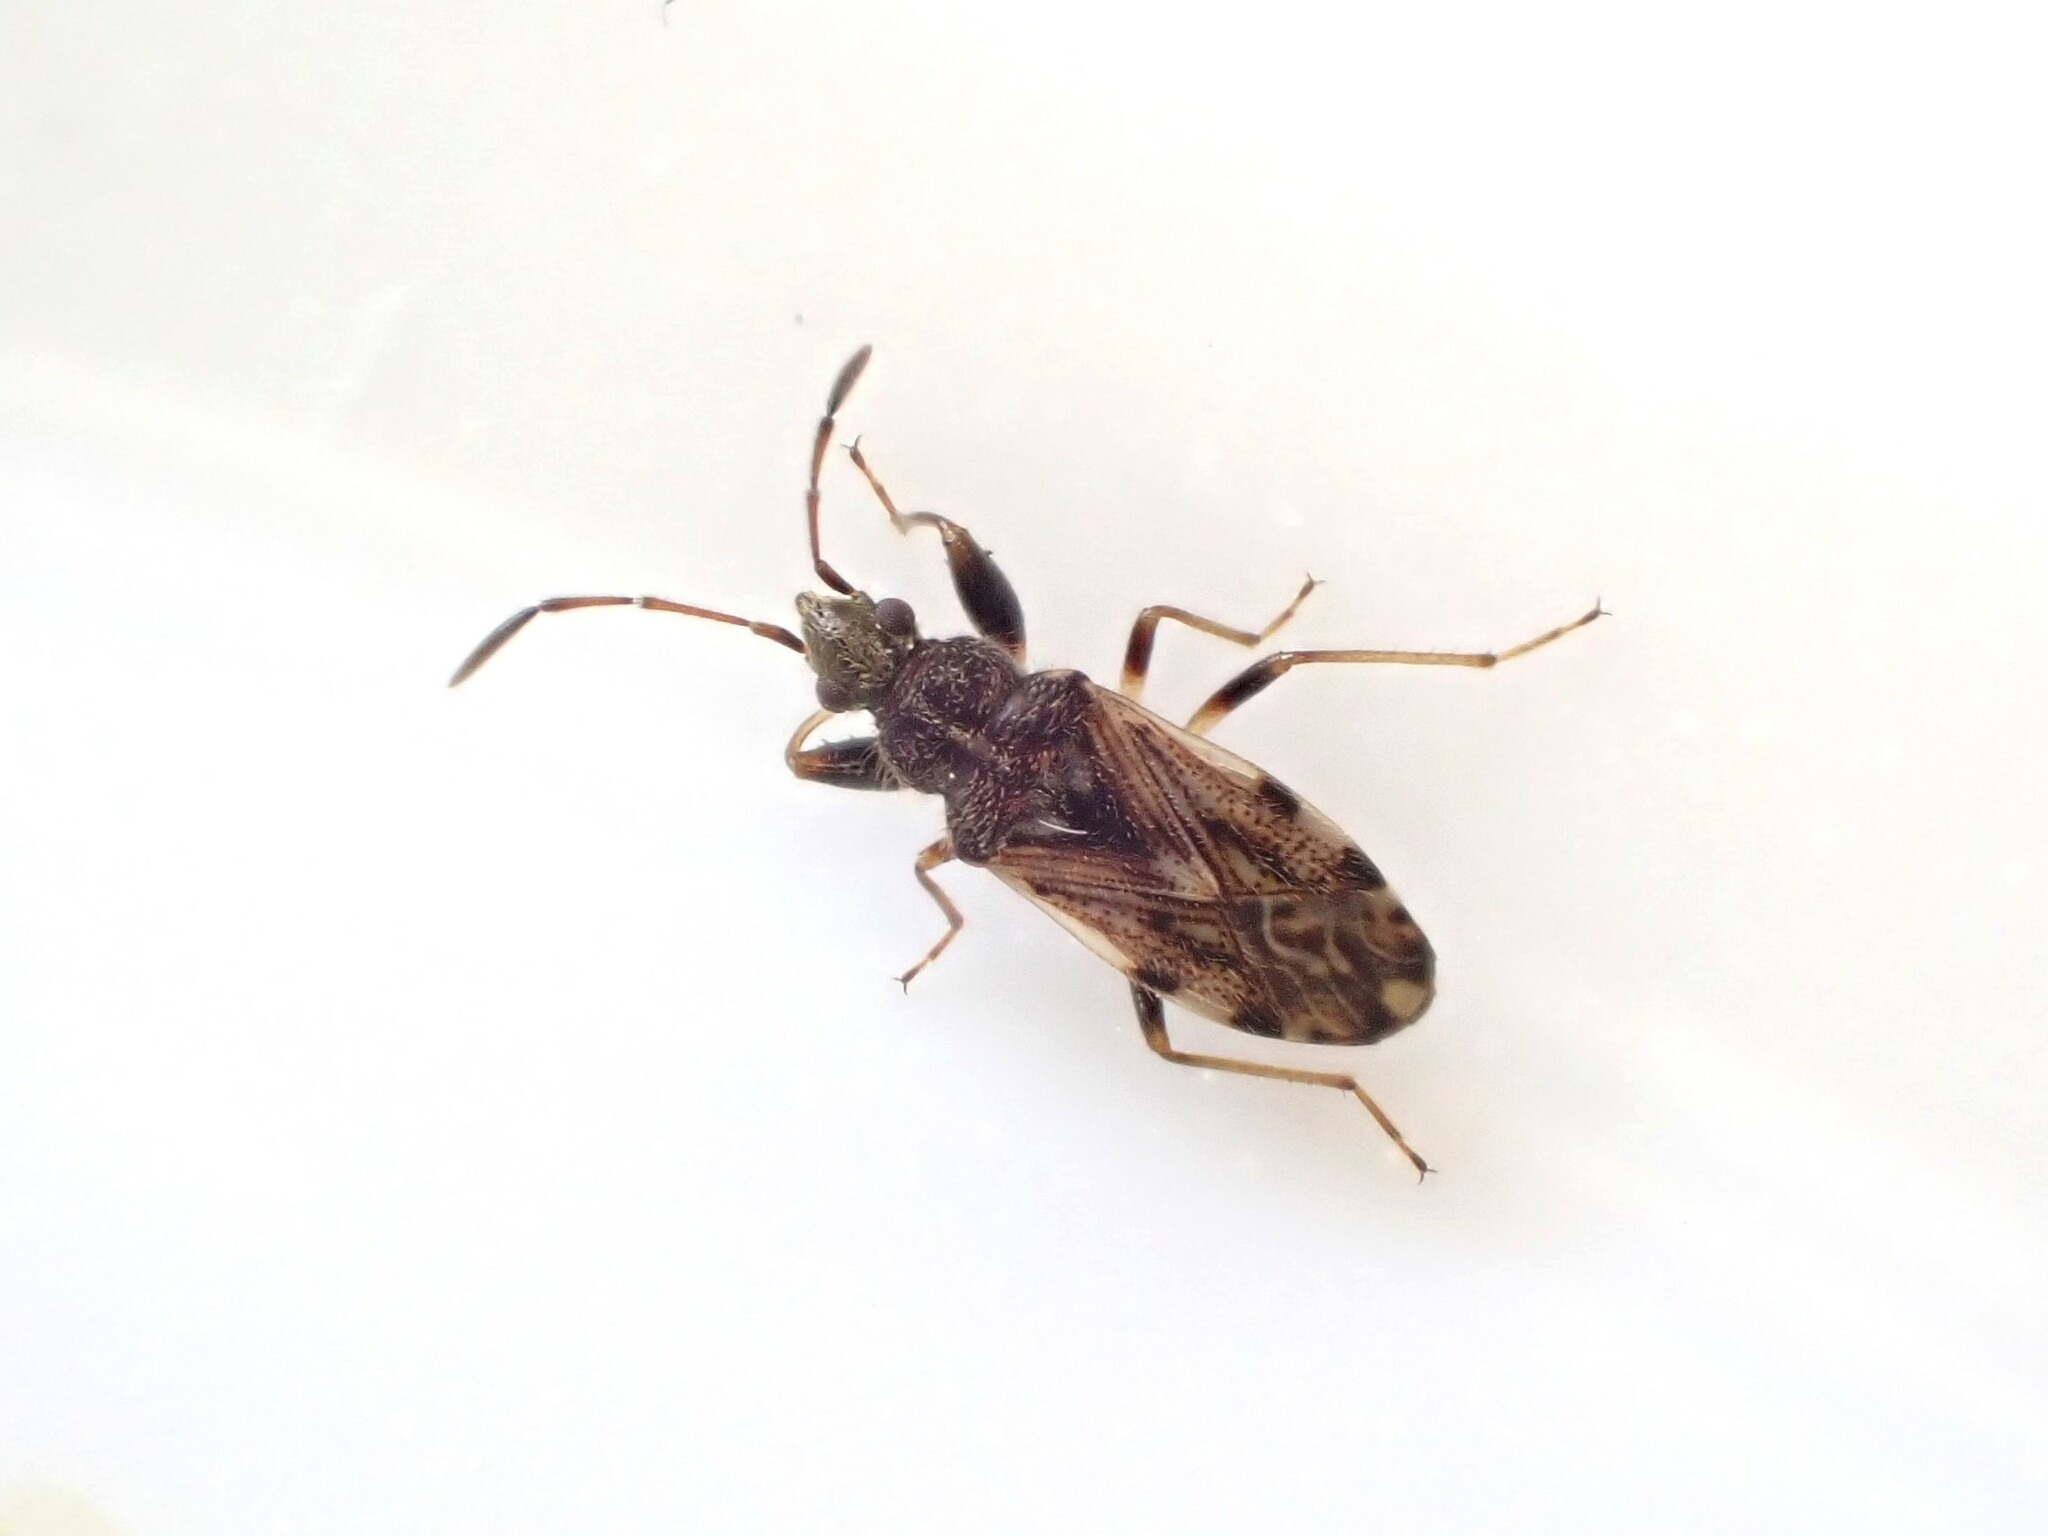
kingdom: Animalia
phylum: Arthropoda
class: Insecta
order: Hemiptera
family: Rhyparochromidae
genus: Remaudiereana
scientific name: Remaudiereana inornatus
